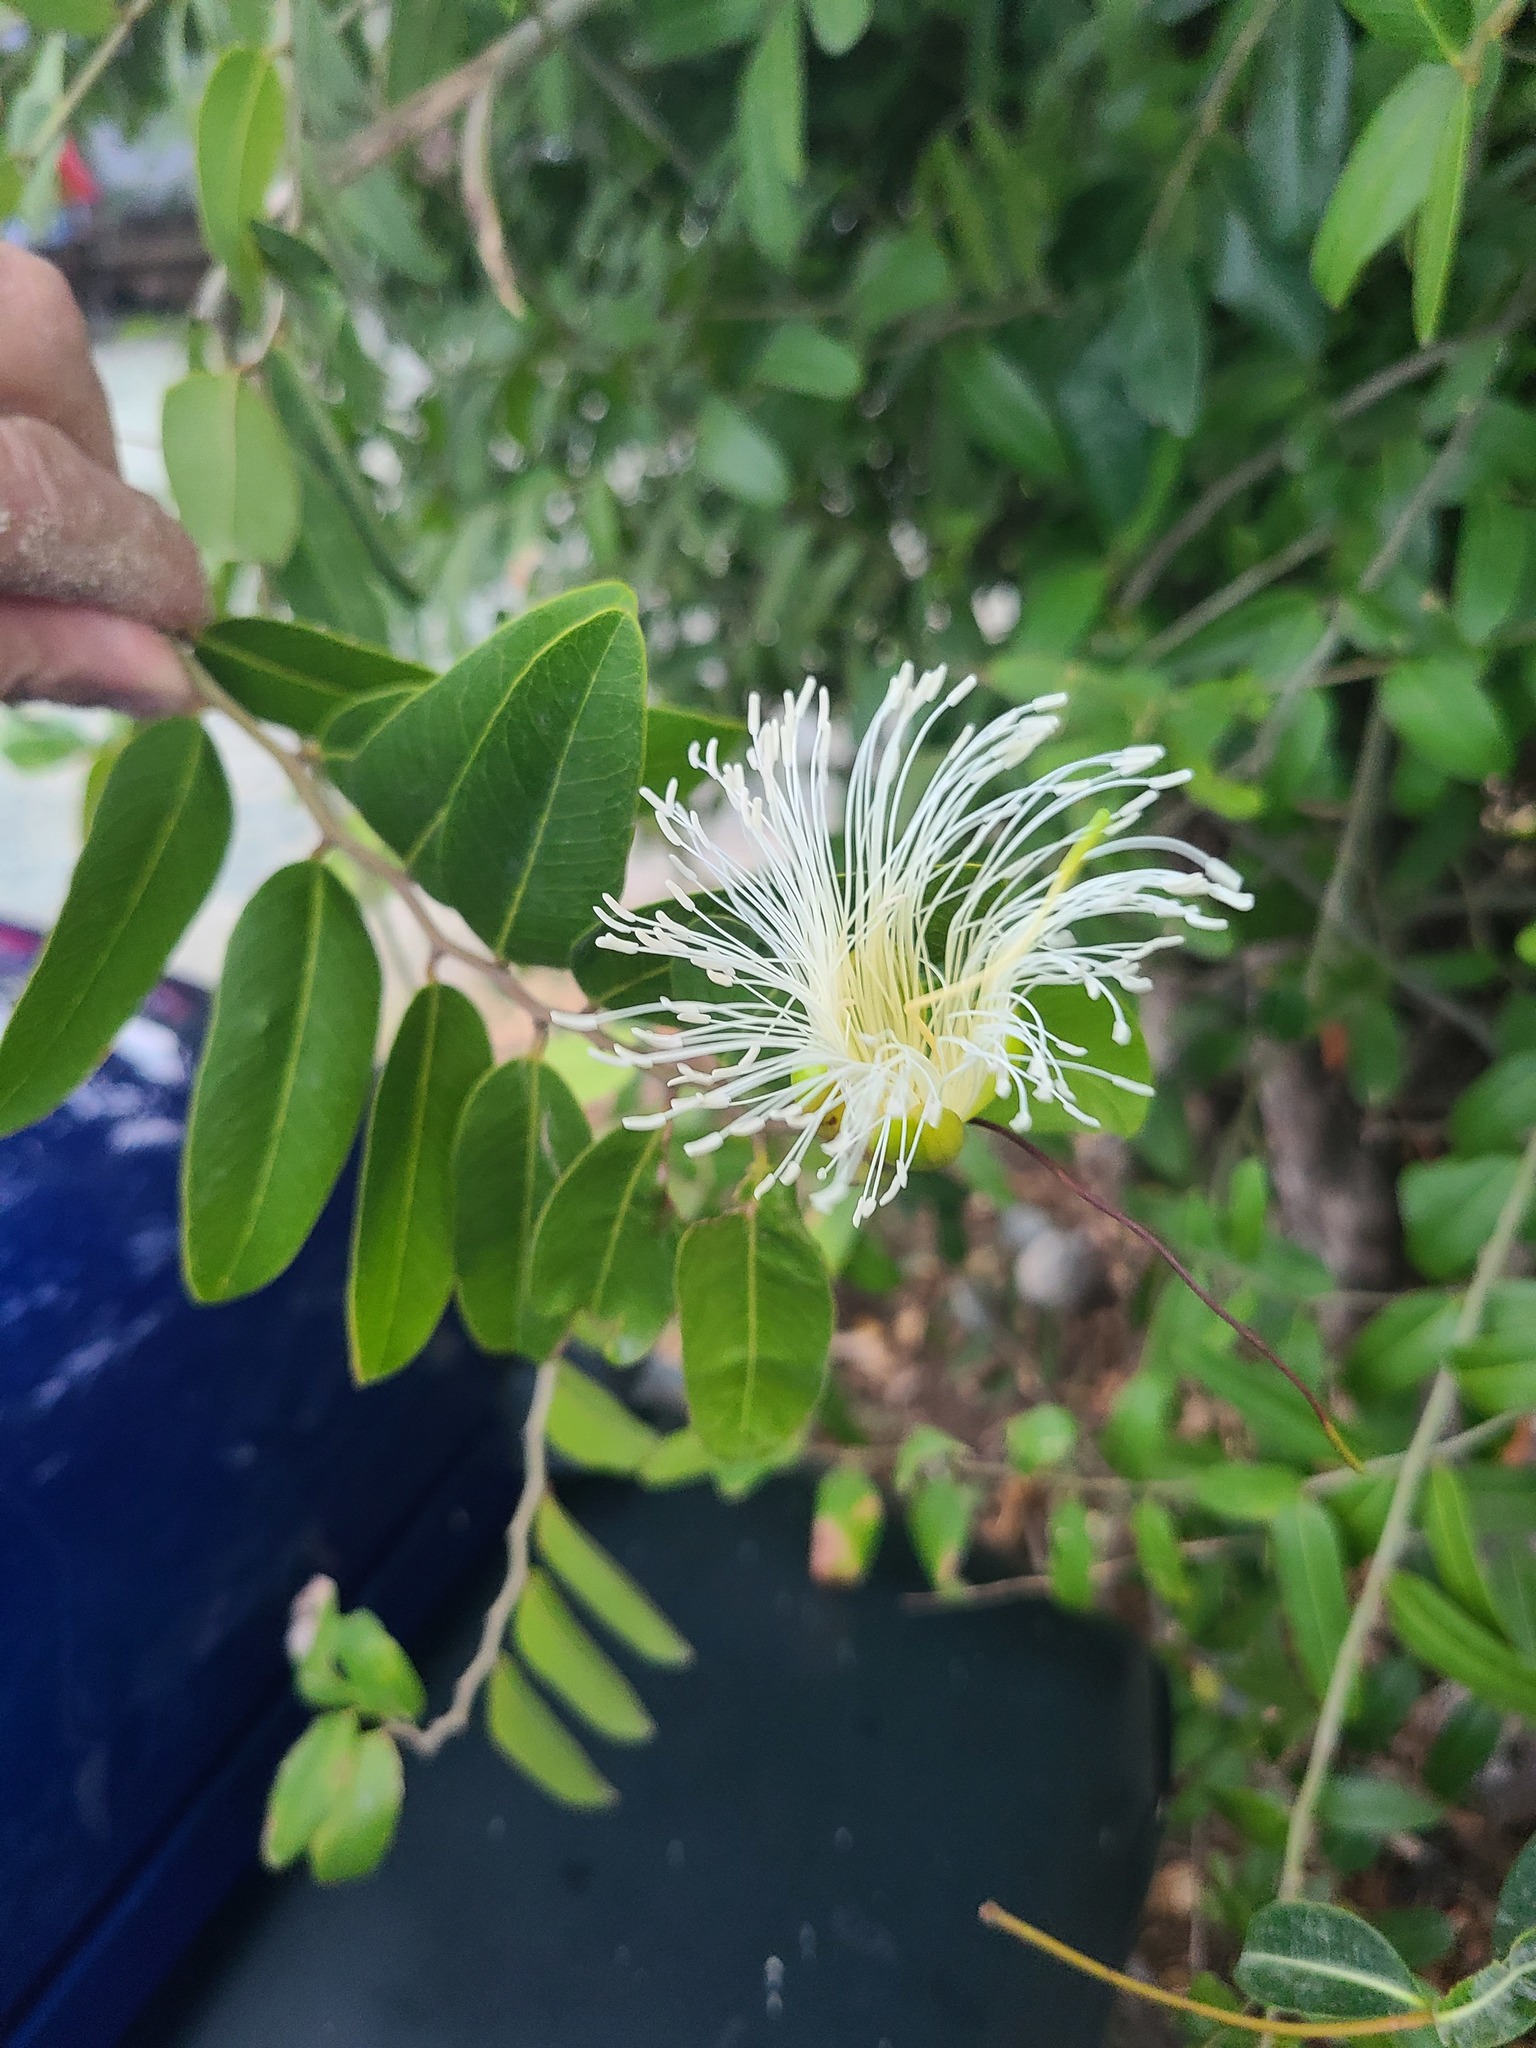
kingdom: Plantae
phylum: Tracheophyta
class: Magnoliopsida
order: Brassicales
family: Capparaceae
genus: Cynophalla
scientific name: Cynophalla flexuosa
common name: Capertree
